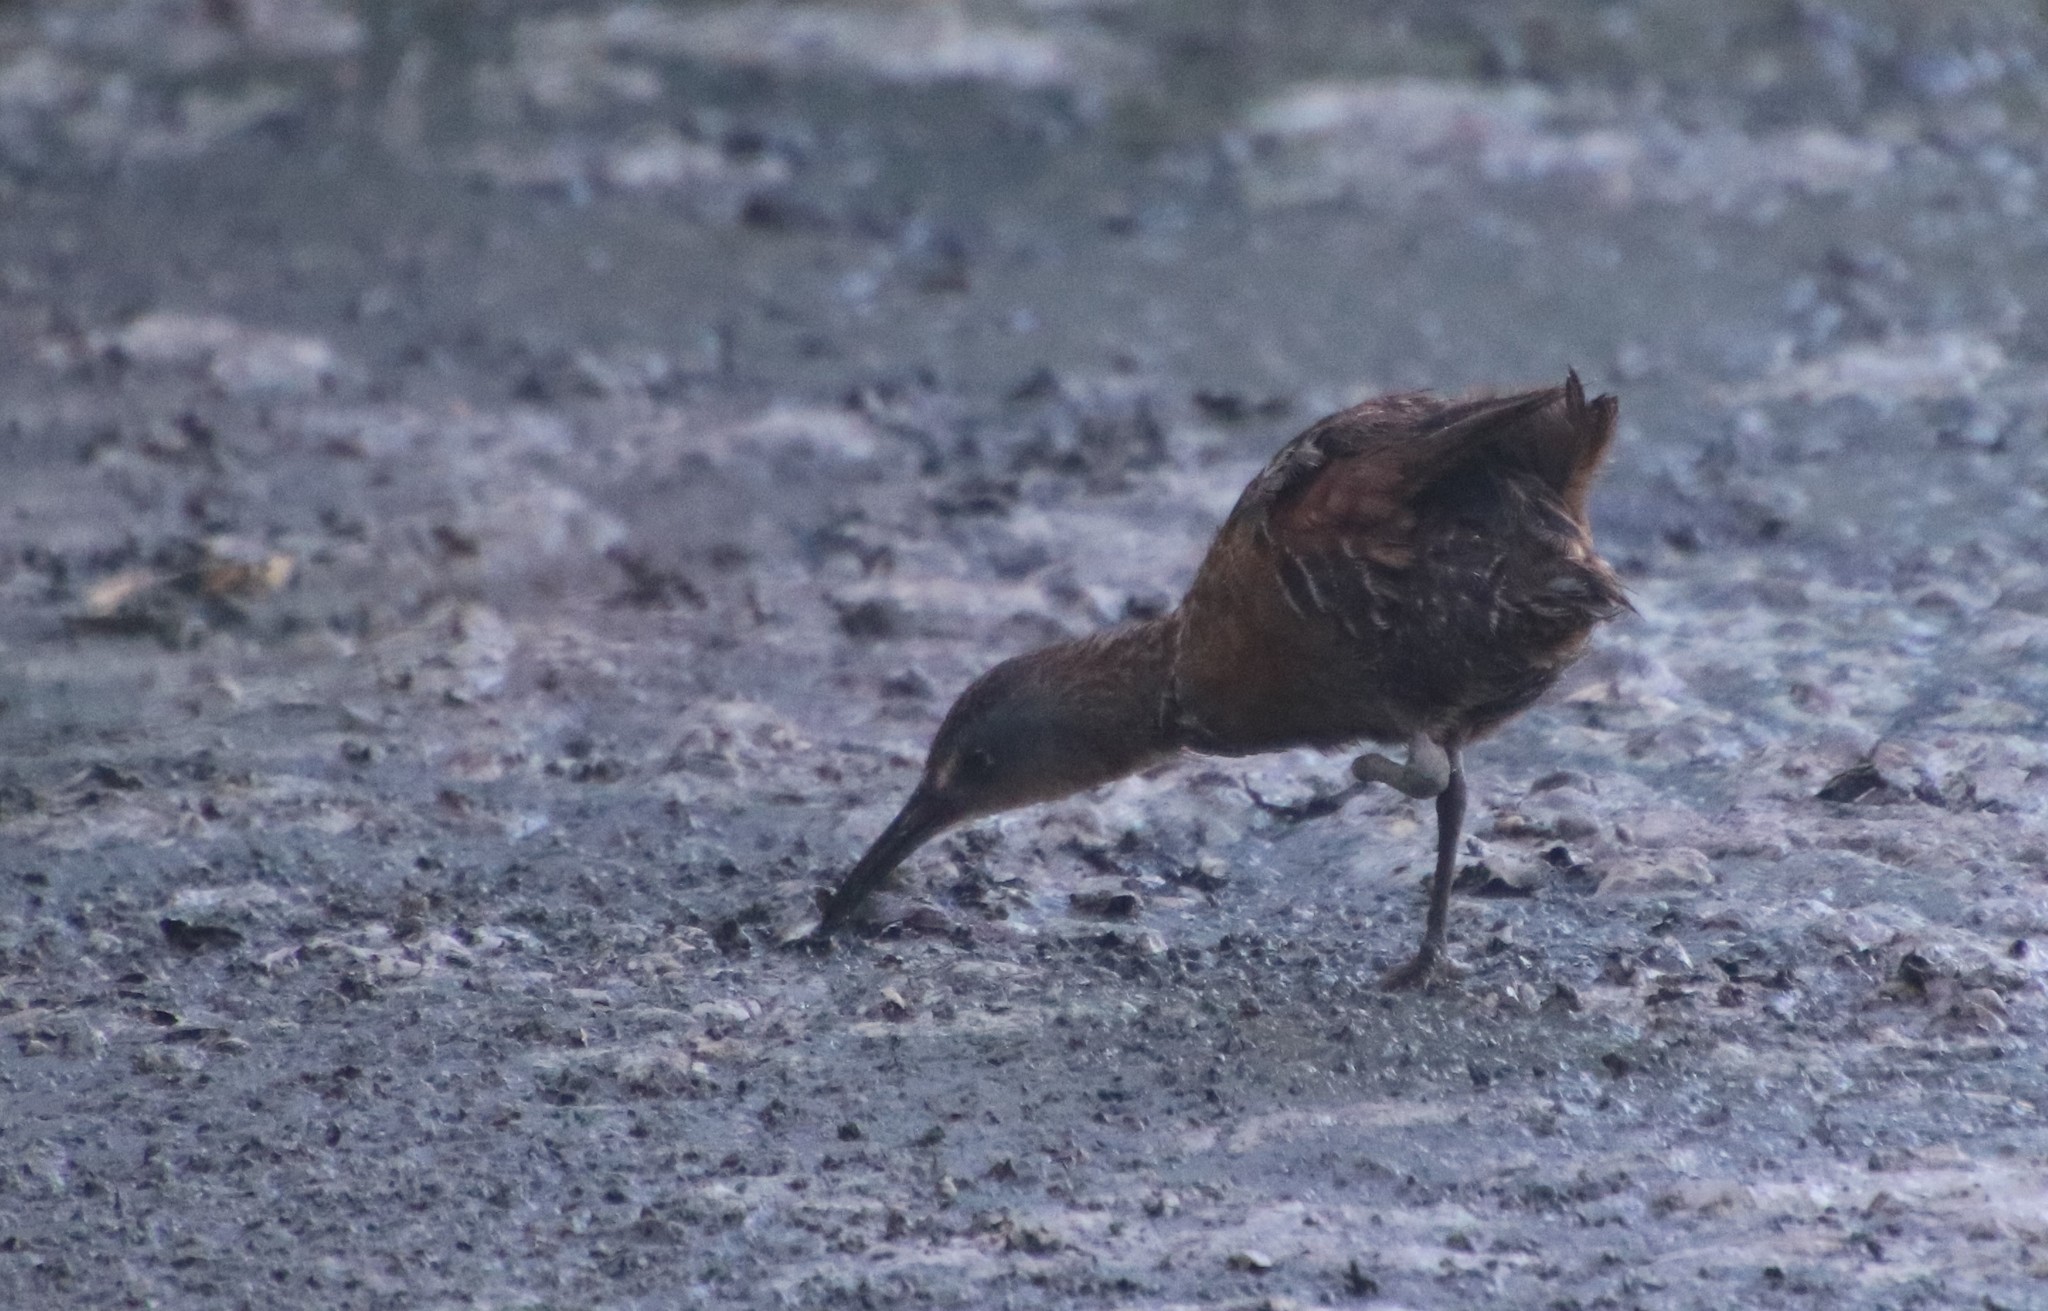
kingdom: Animalia
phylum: Chordata
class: Aves
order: Gruiformes
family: Rallidae
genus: Rallus
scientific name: Rallus limicola
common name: Virginia rail
